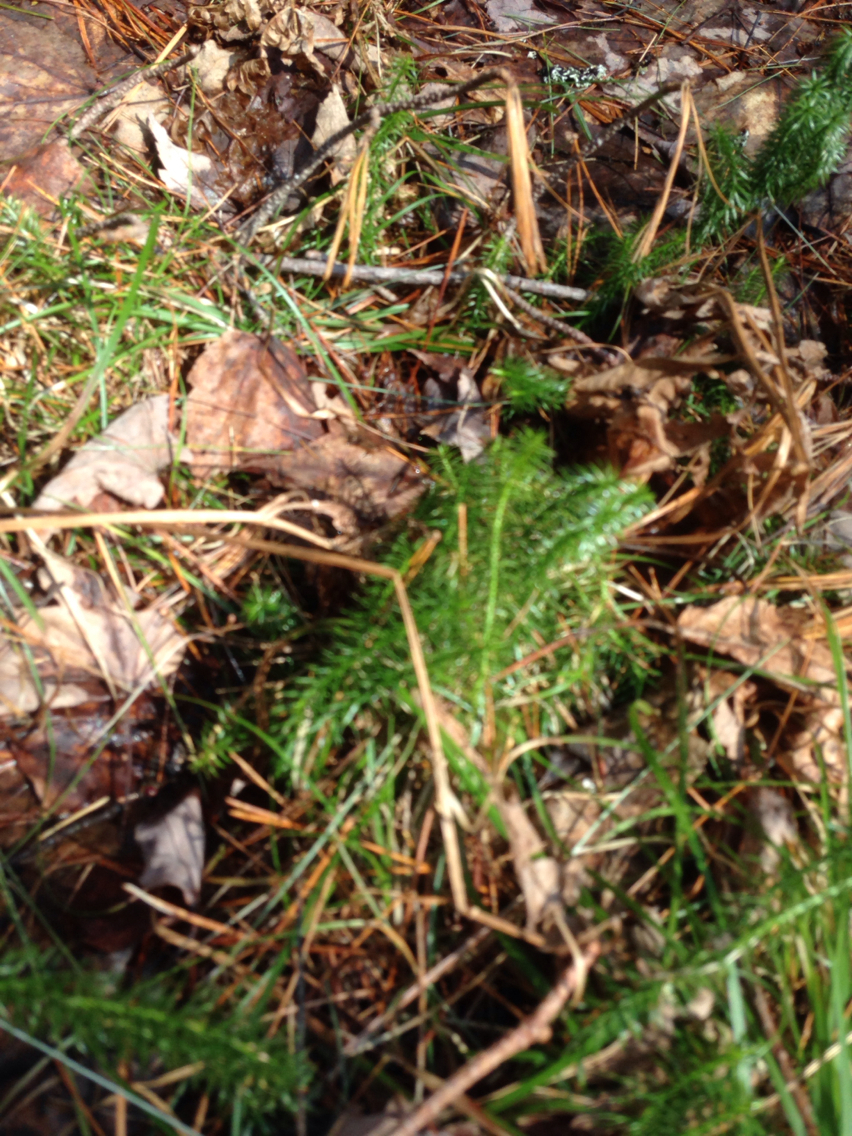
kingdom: Plantae
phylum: Tracheophyta
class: Lycopodiopsida
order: Lycopodiales
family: Lycopodiaceae
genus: Huperzia
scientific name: Huperzia lucidula
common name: Shining clubmoss
